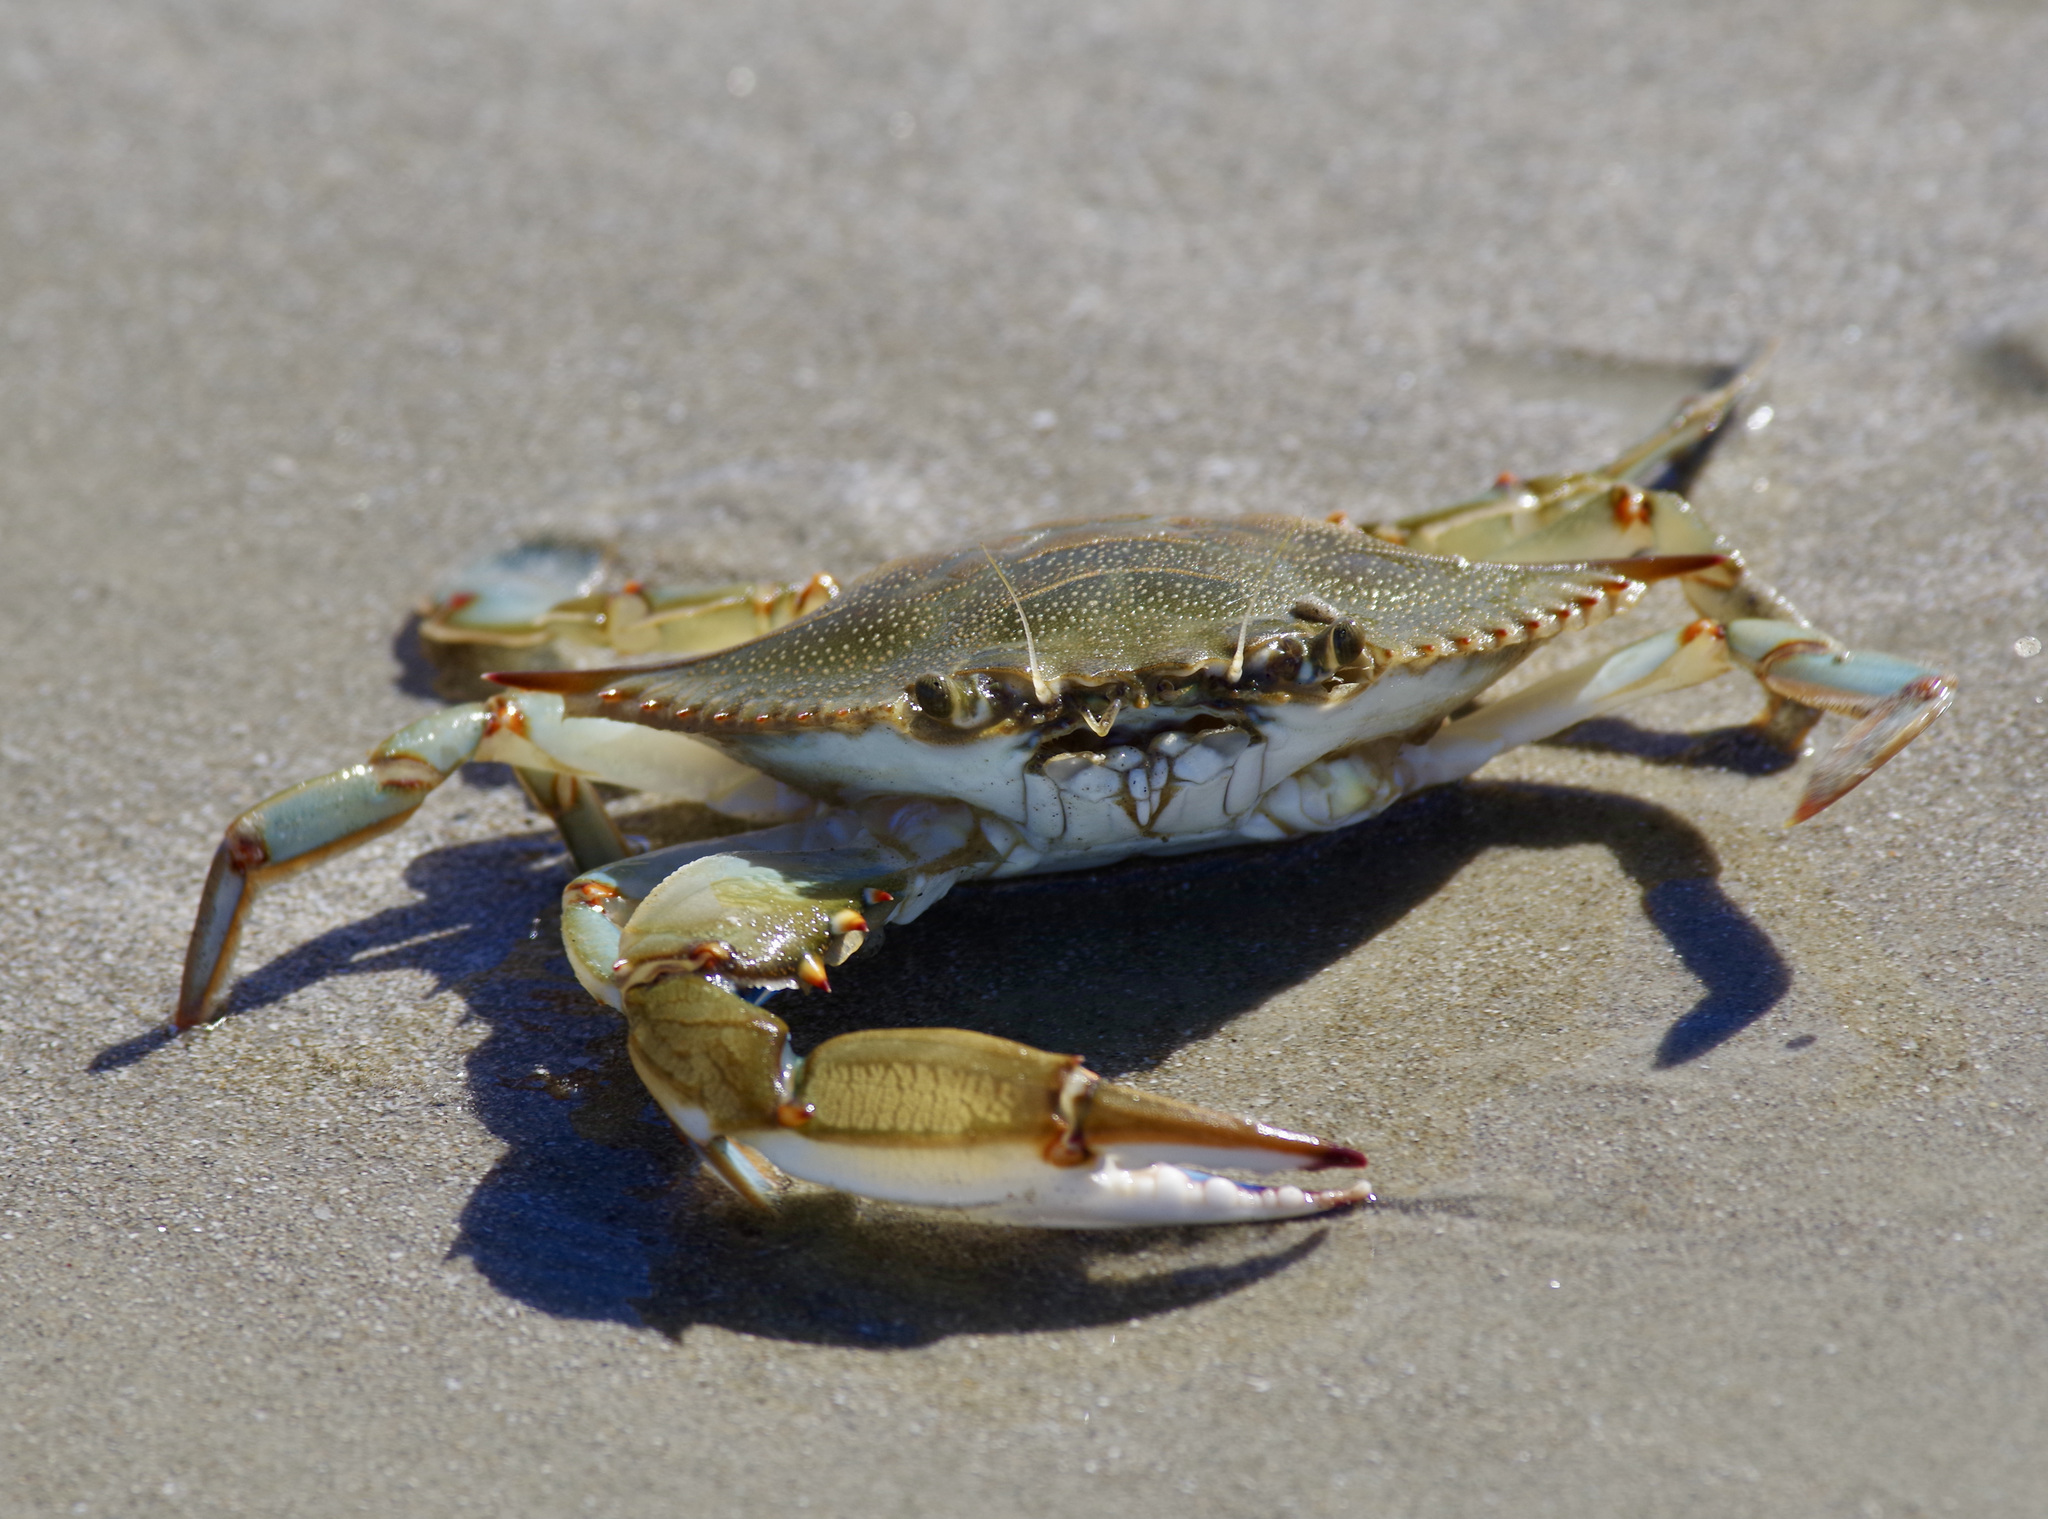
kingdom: Animalia
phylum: Arthropoda
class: Malacostraca
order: Decapoda
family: Portunidae
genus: Callinectes
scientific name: Callinectes sapidus
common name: Blue crab
